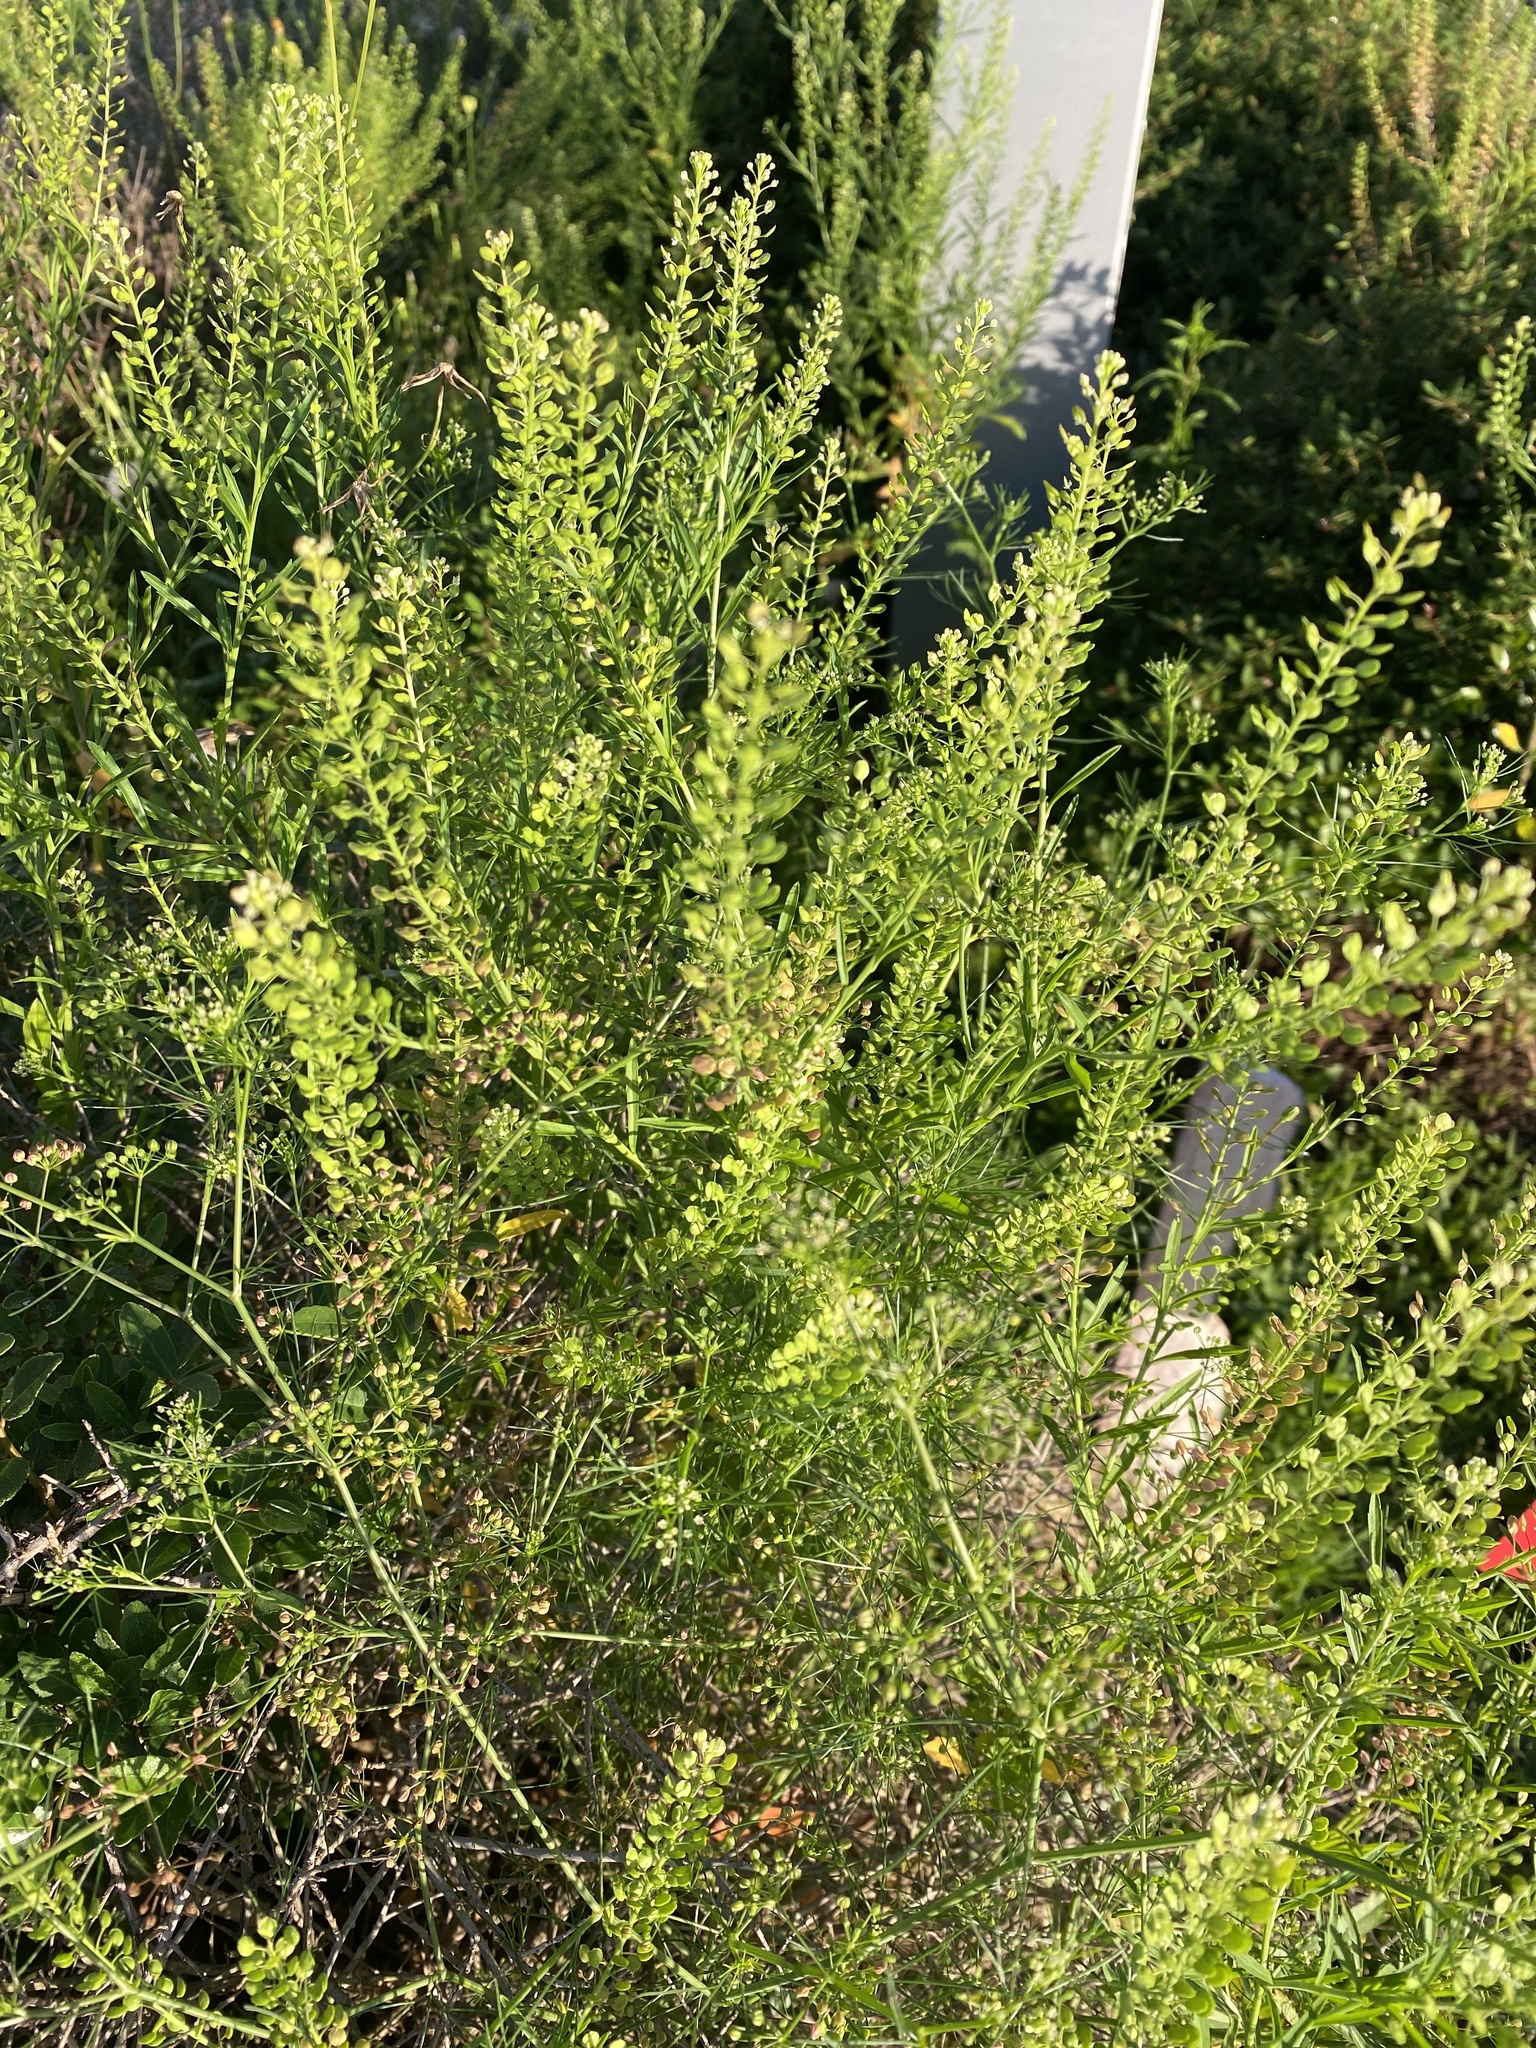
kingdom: Plantae
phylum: Tracheophyta
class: Magnoliopsida
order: Brassicales
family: Brassicaceae
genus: Lepidium
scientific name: Lepidium virginicum
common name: Least pepperwort
